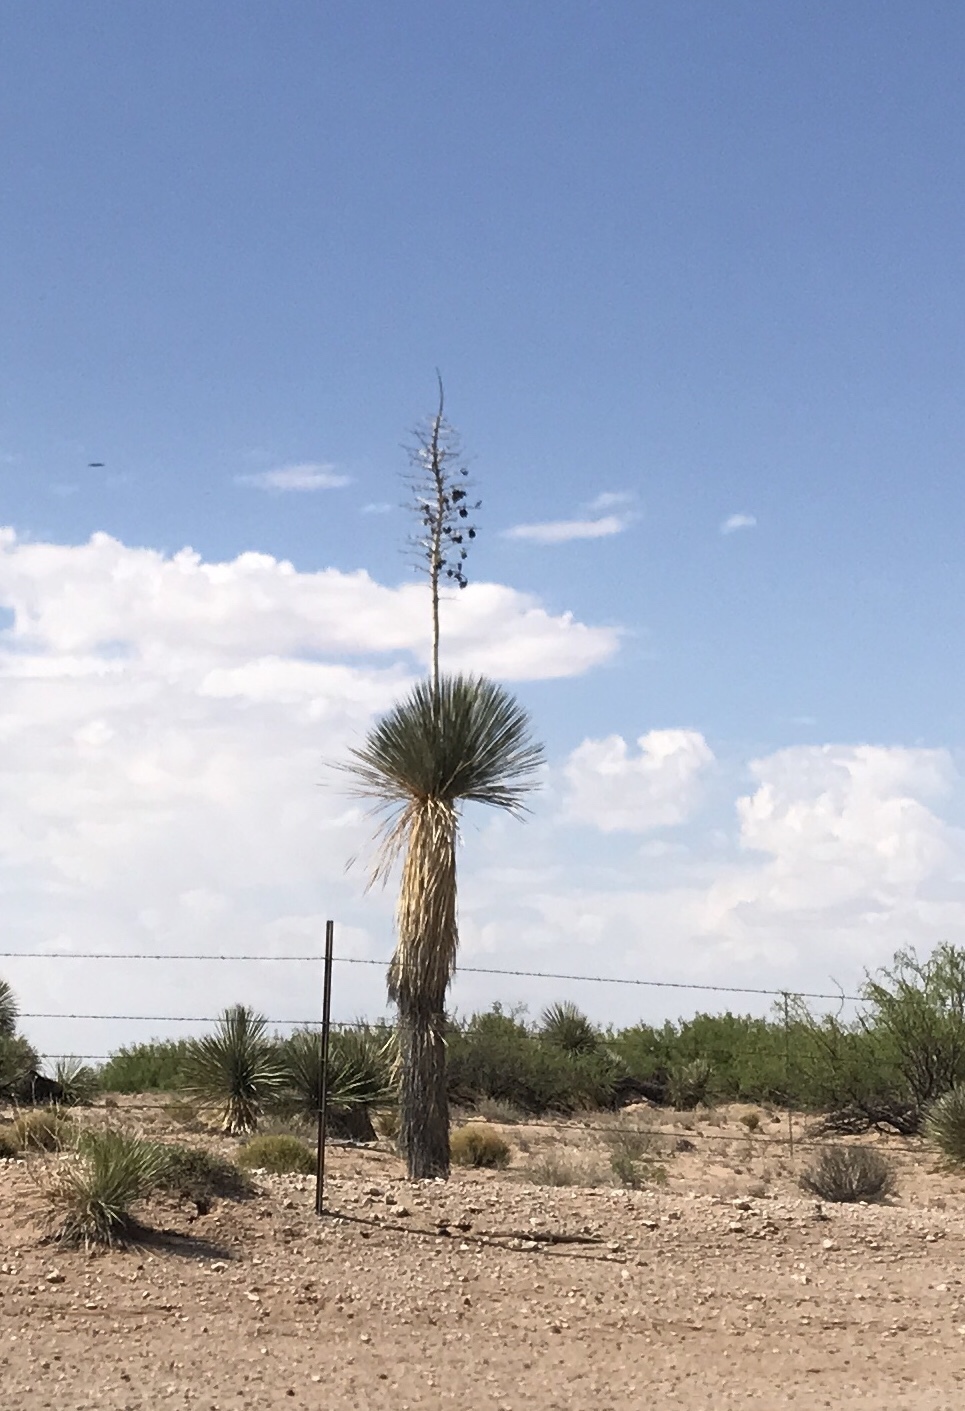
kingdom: Plantae
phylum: Tracheophyta
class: Liliopsida
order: Asparagales
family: Asparagaceae
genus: Yucca
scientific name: Yucca elata
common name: Palmella
